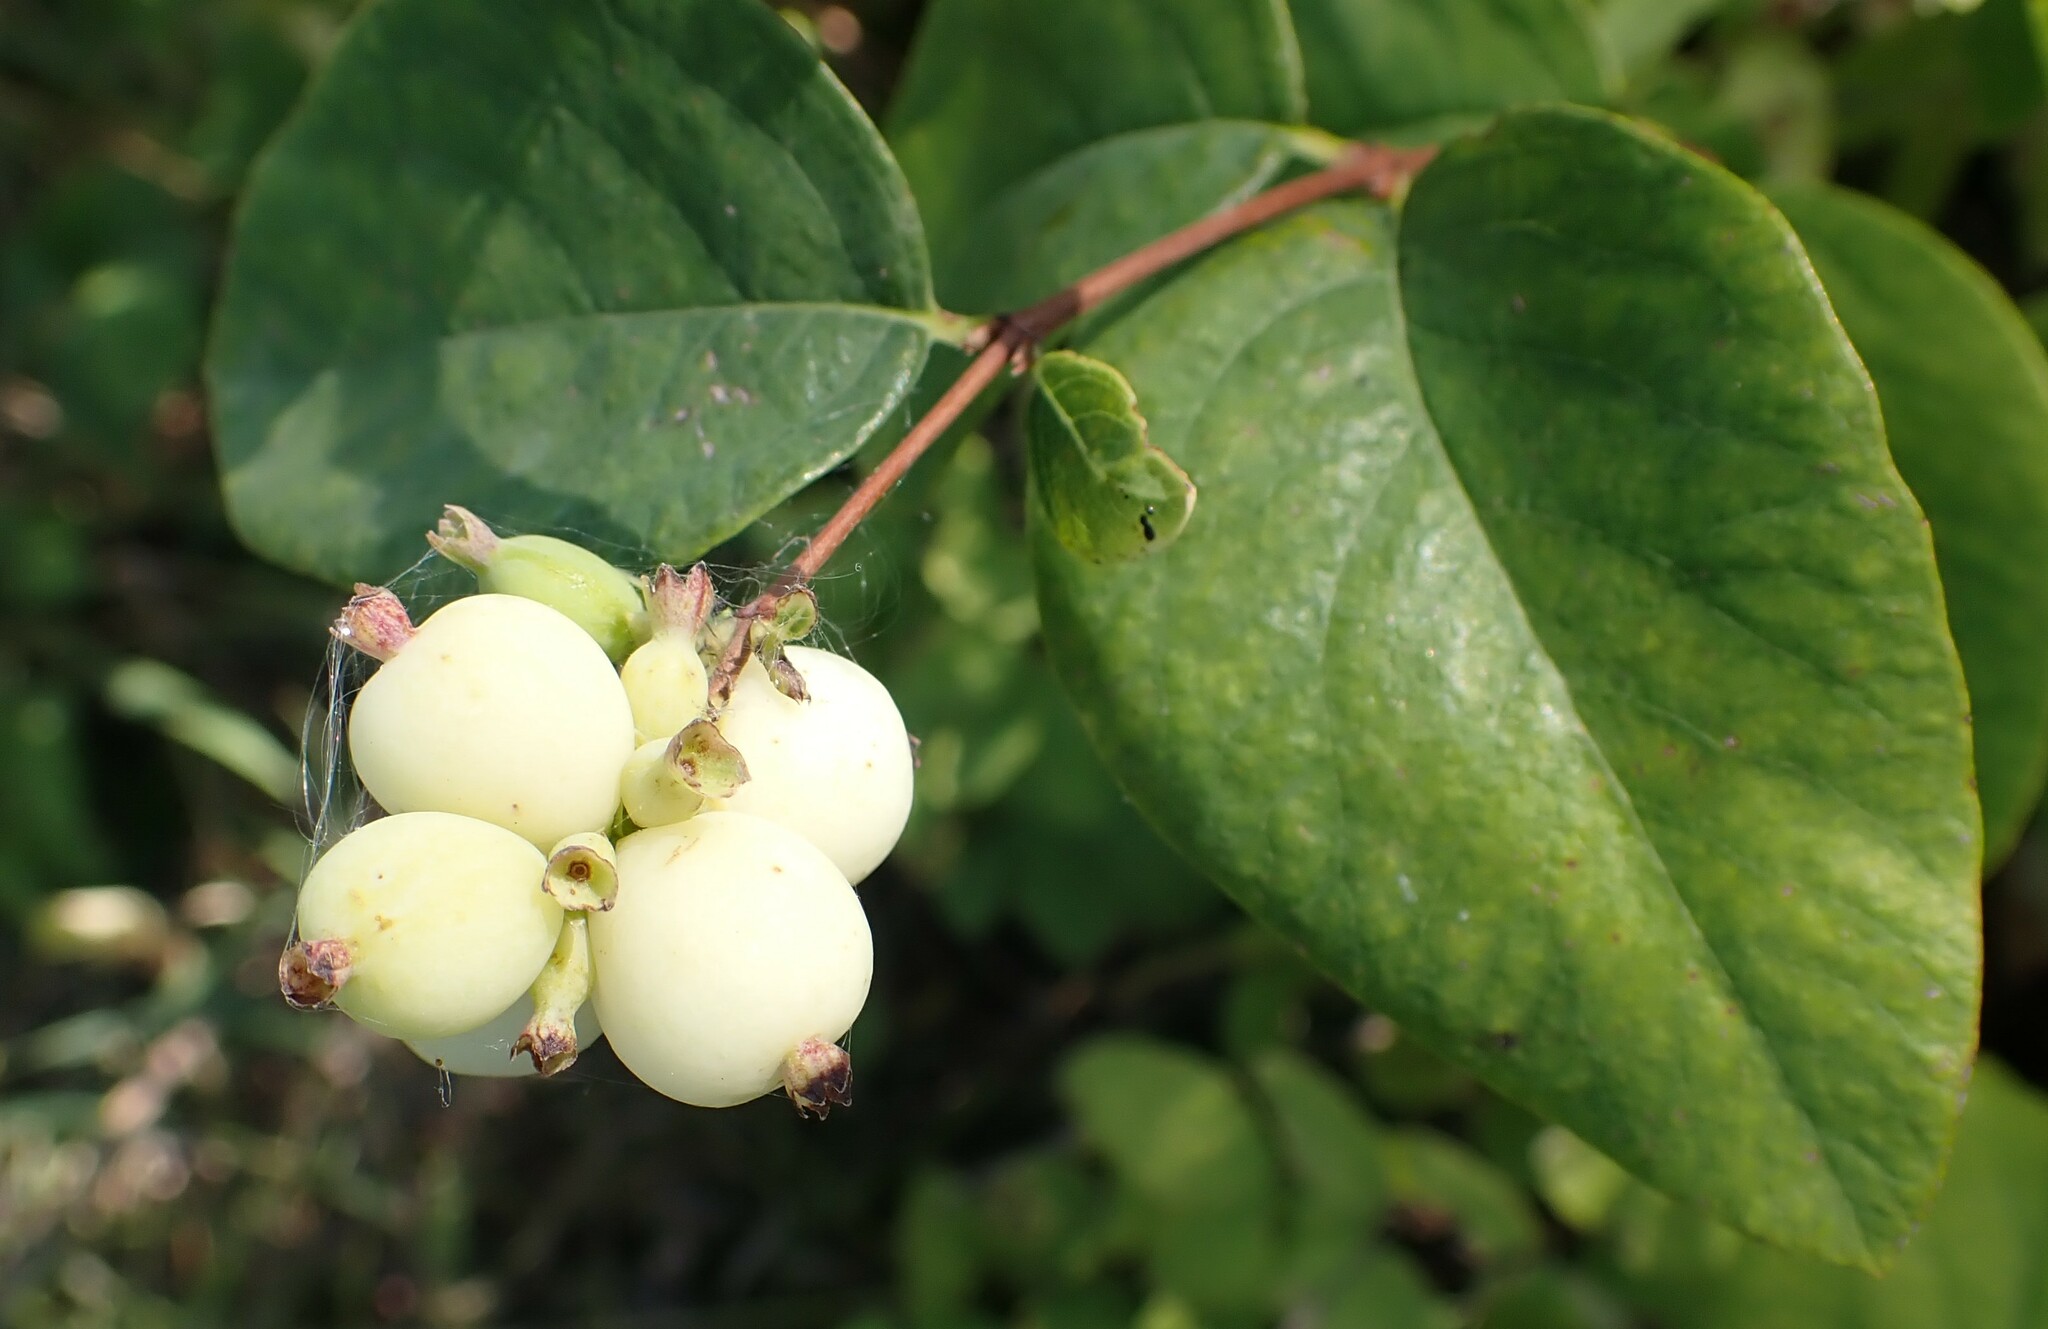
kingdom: Plantae
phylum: Tracheophyta
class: Magnoliopsida
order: Dipsacales
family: Caprifoliaceae
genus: Symphoricarpos
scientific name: Symphoricarpos albus
